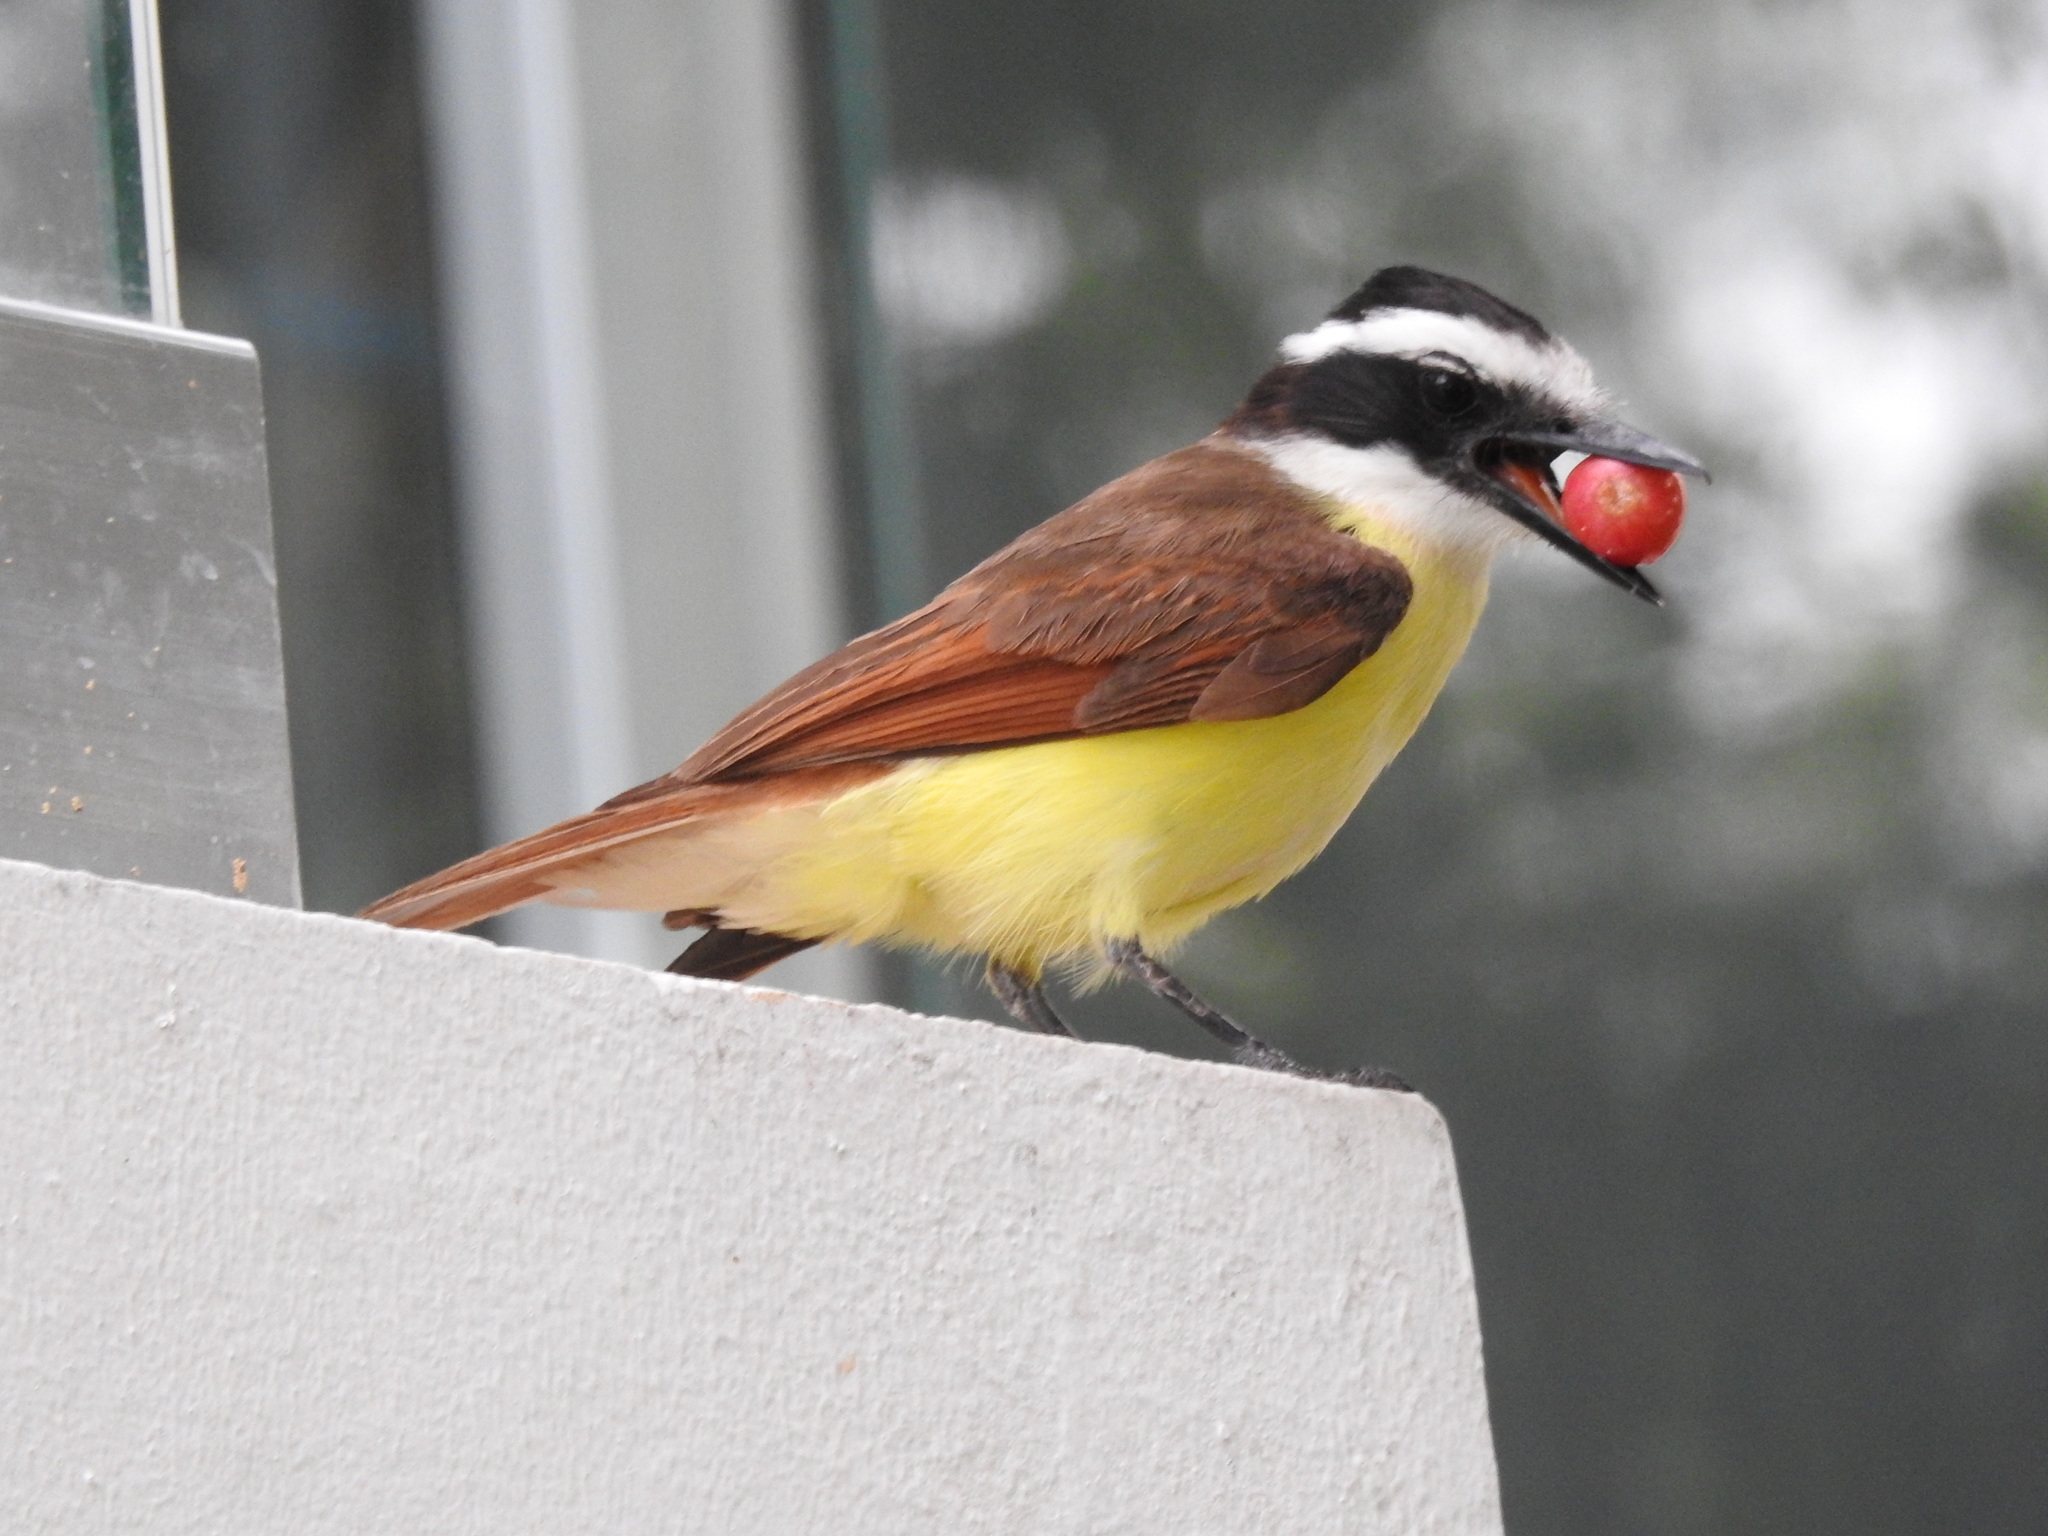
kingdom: Animalia
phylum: Chordata
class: Aves
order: Passeriformes
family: Tyrannidae
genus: Pitangus
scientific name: Pitangus sulphuratus
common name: Great kiskadee
